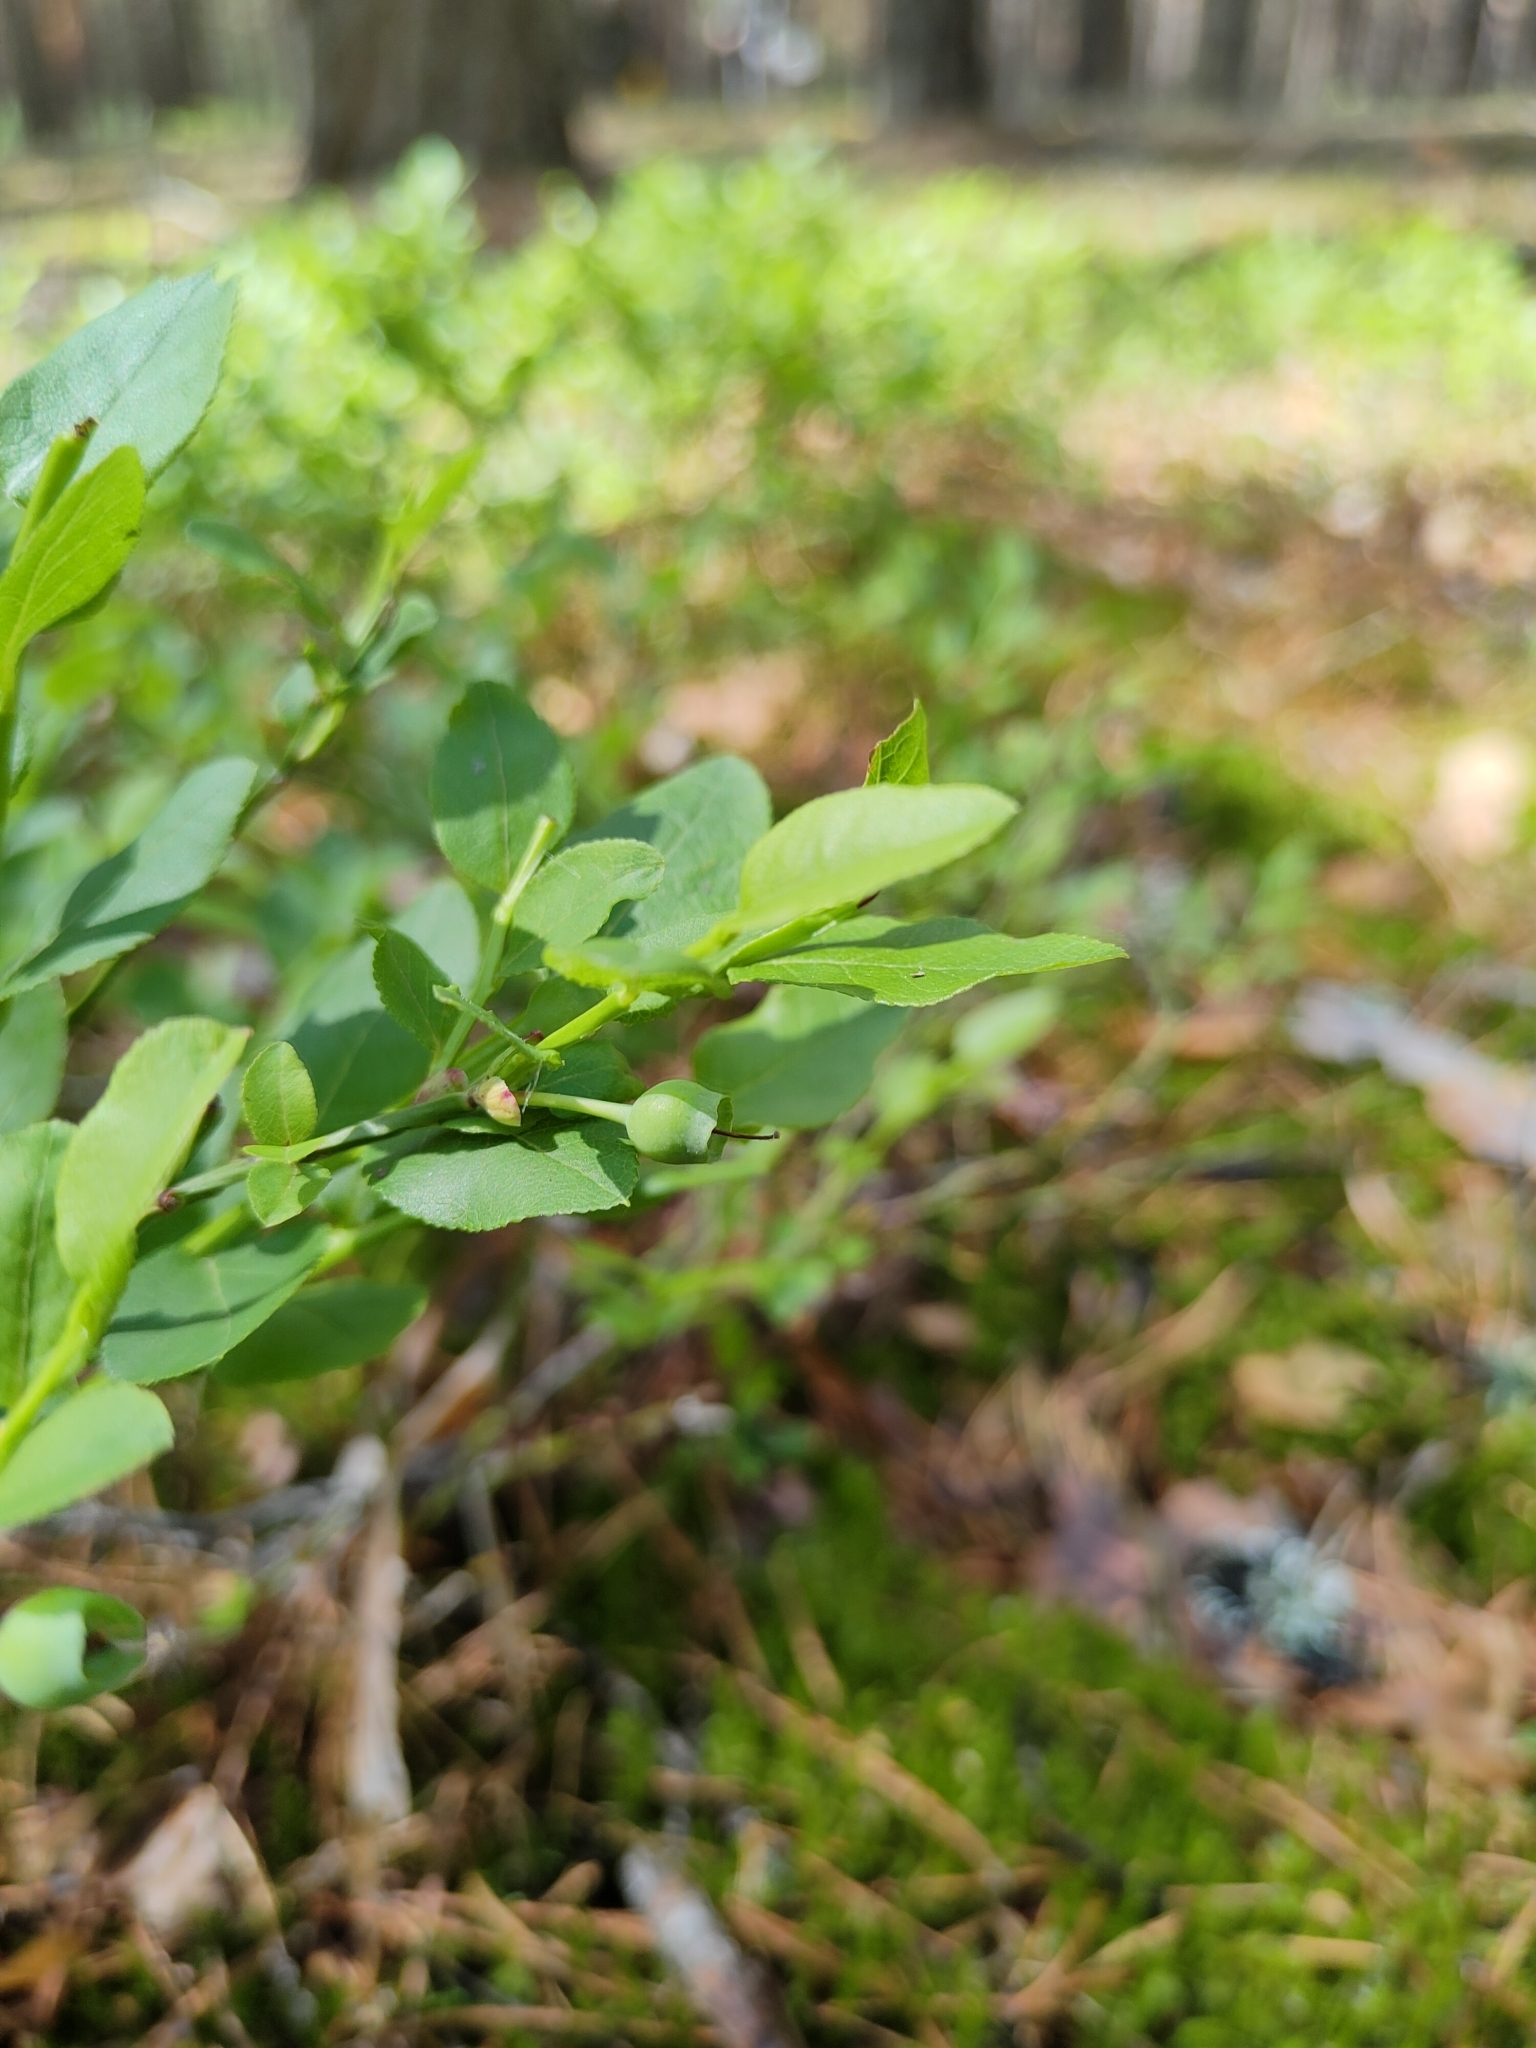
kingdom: Plantae
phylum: Tracheophyta
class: Magnoliopsida
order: Ericales
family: Ericaceae
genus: Vaccinium
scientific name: Vaccinium myrtillus
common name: Bilberry
